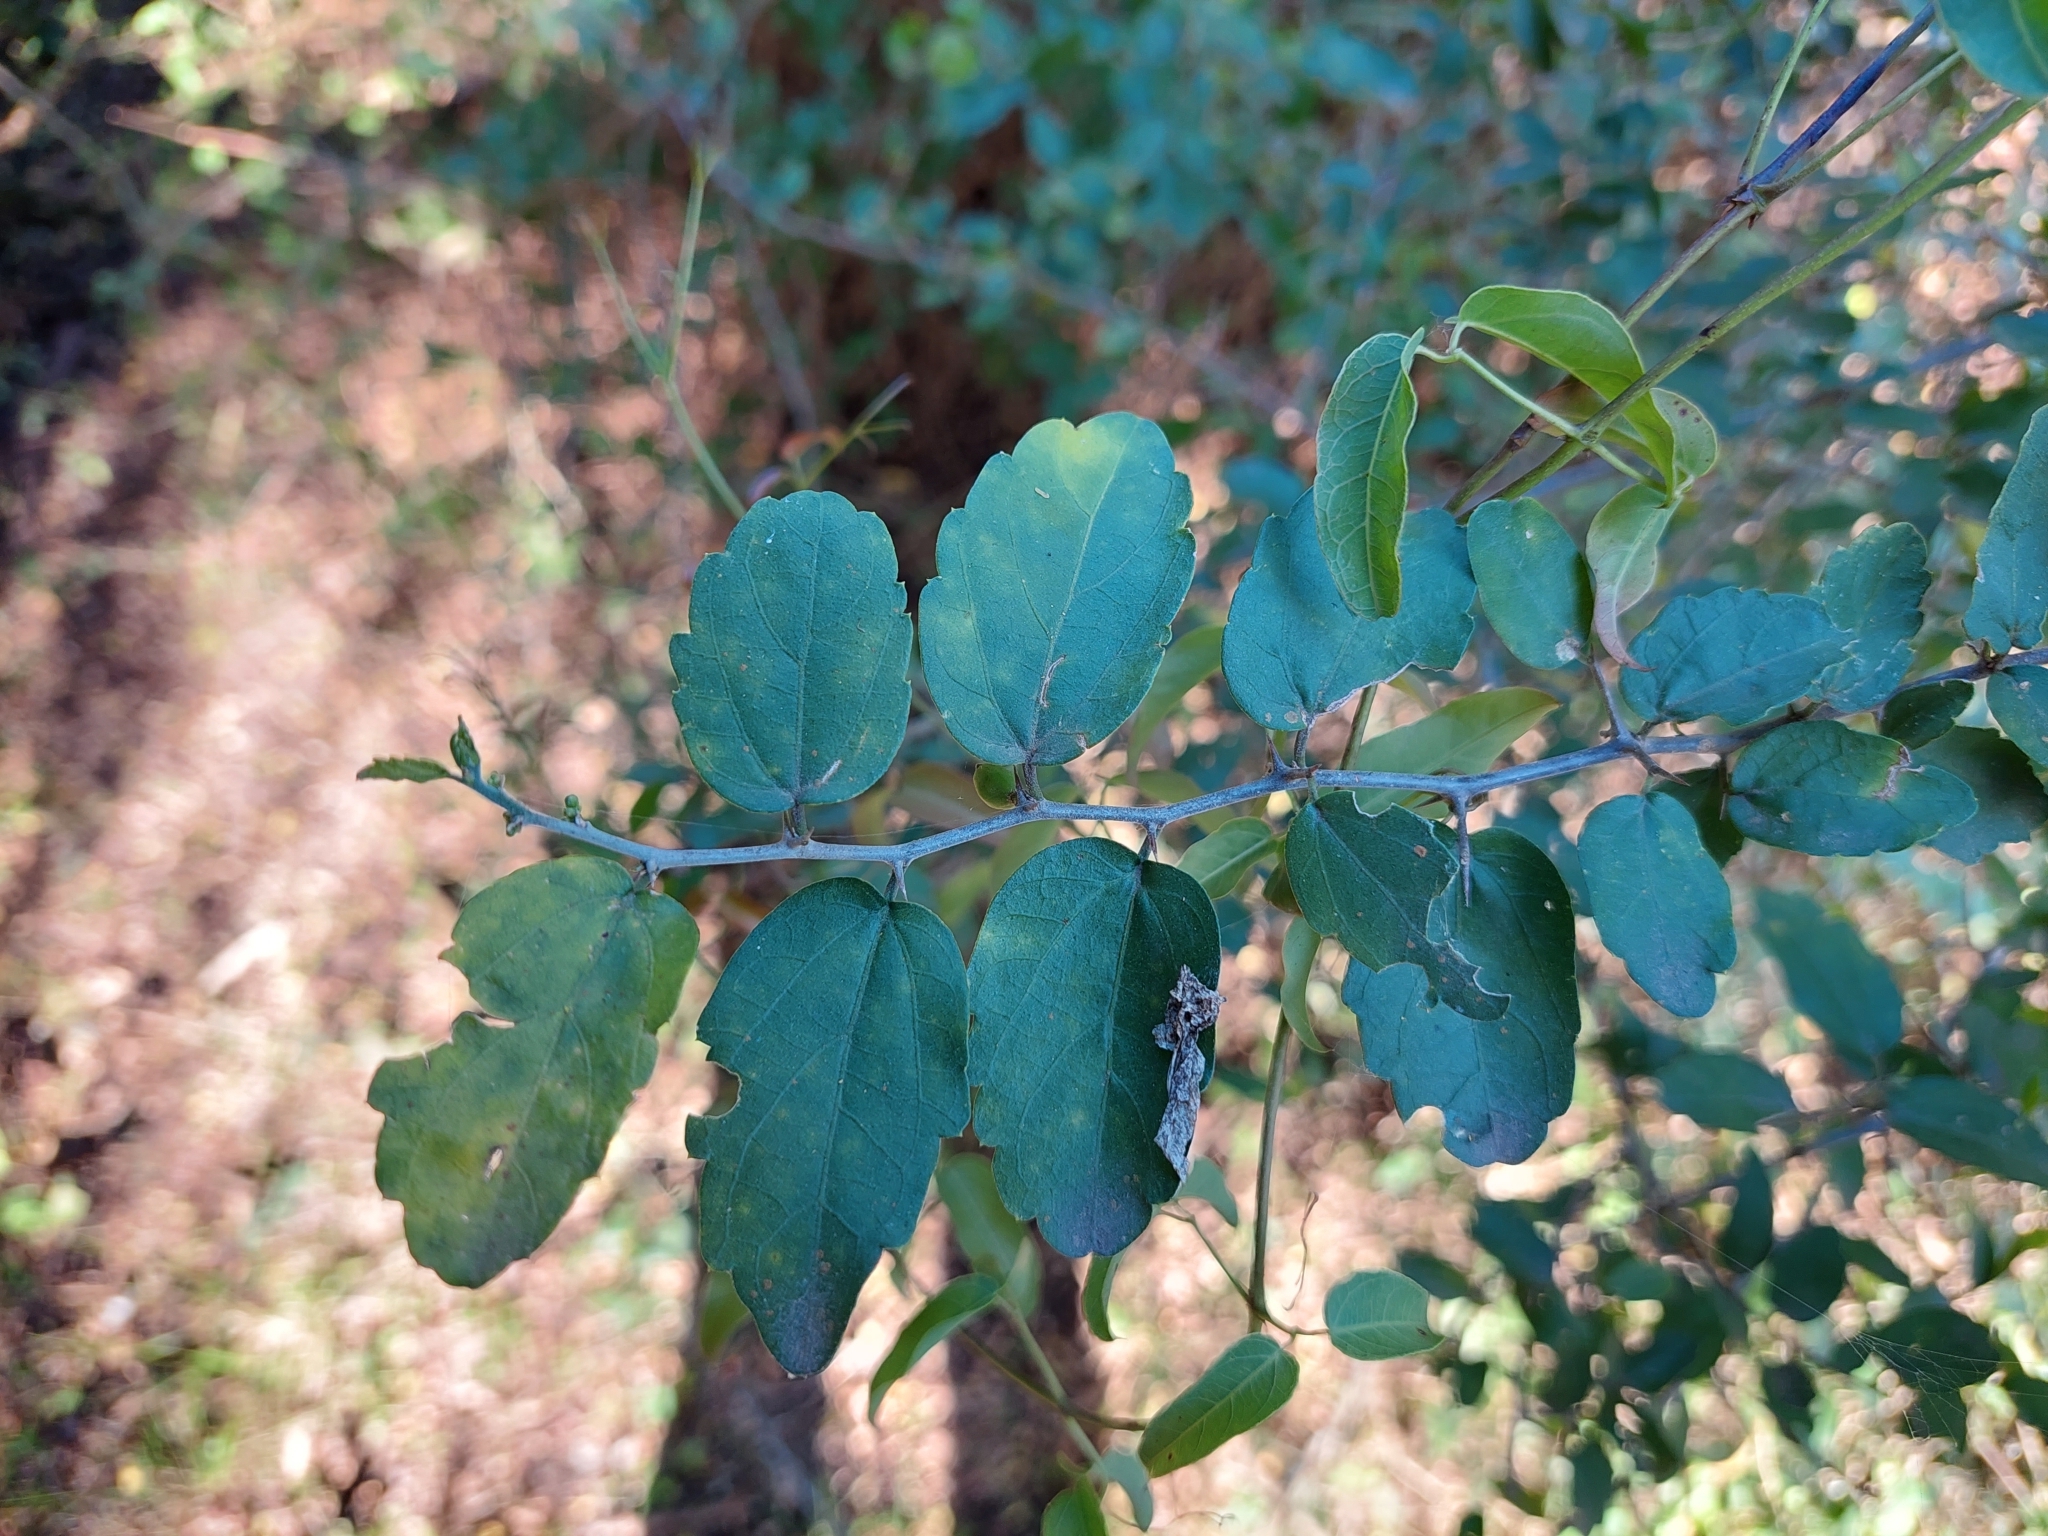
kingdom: Plantae
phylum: Tracheophyta
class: Magnoliopsida
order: Rosales
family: Cannabaceae
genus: Celtis
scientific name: Celtis pallida
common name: Desert hackberry
